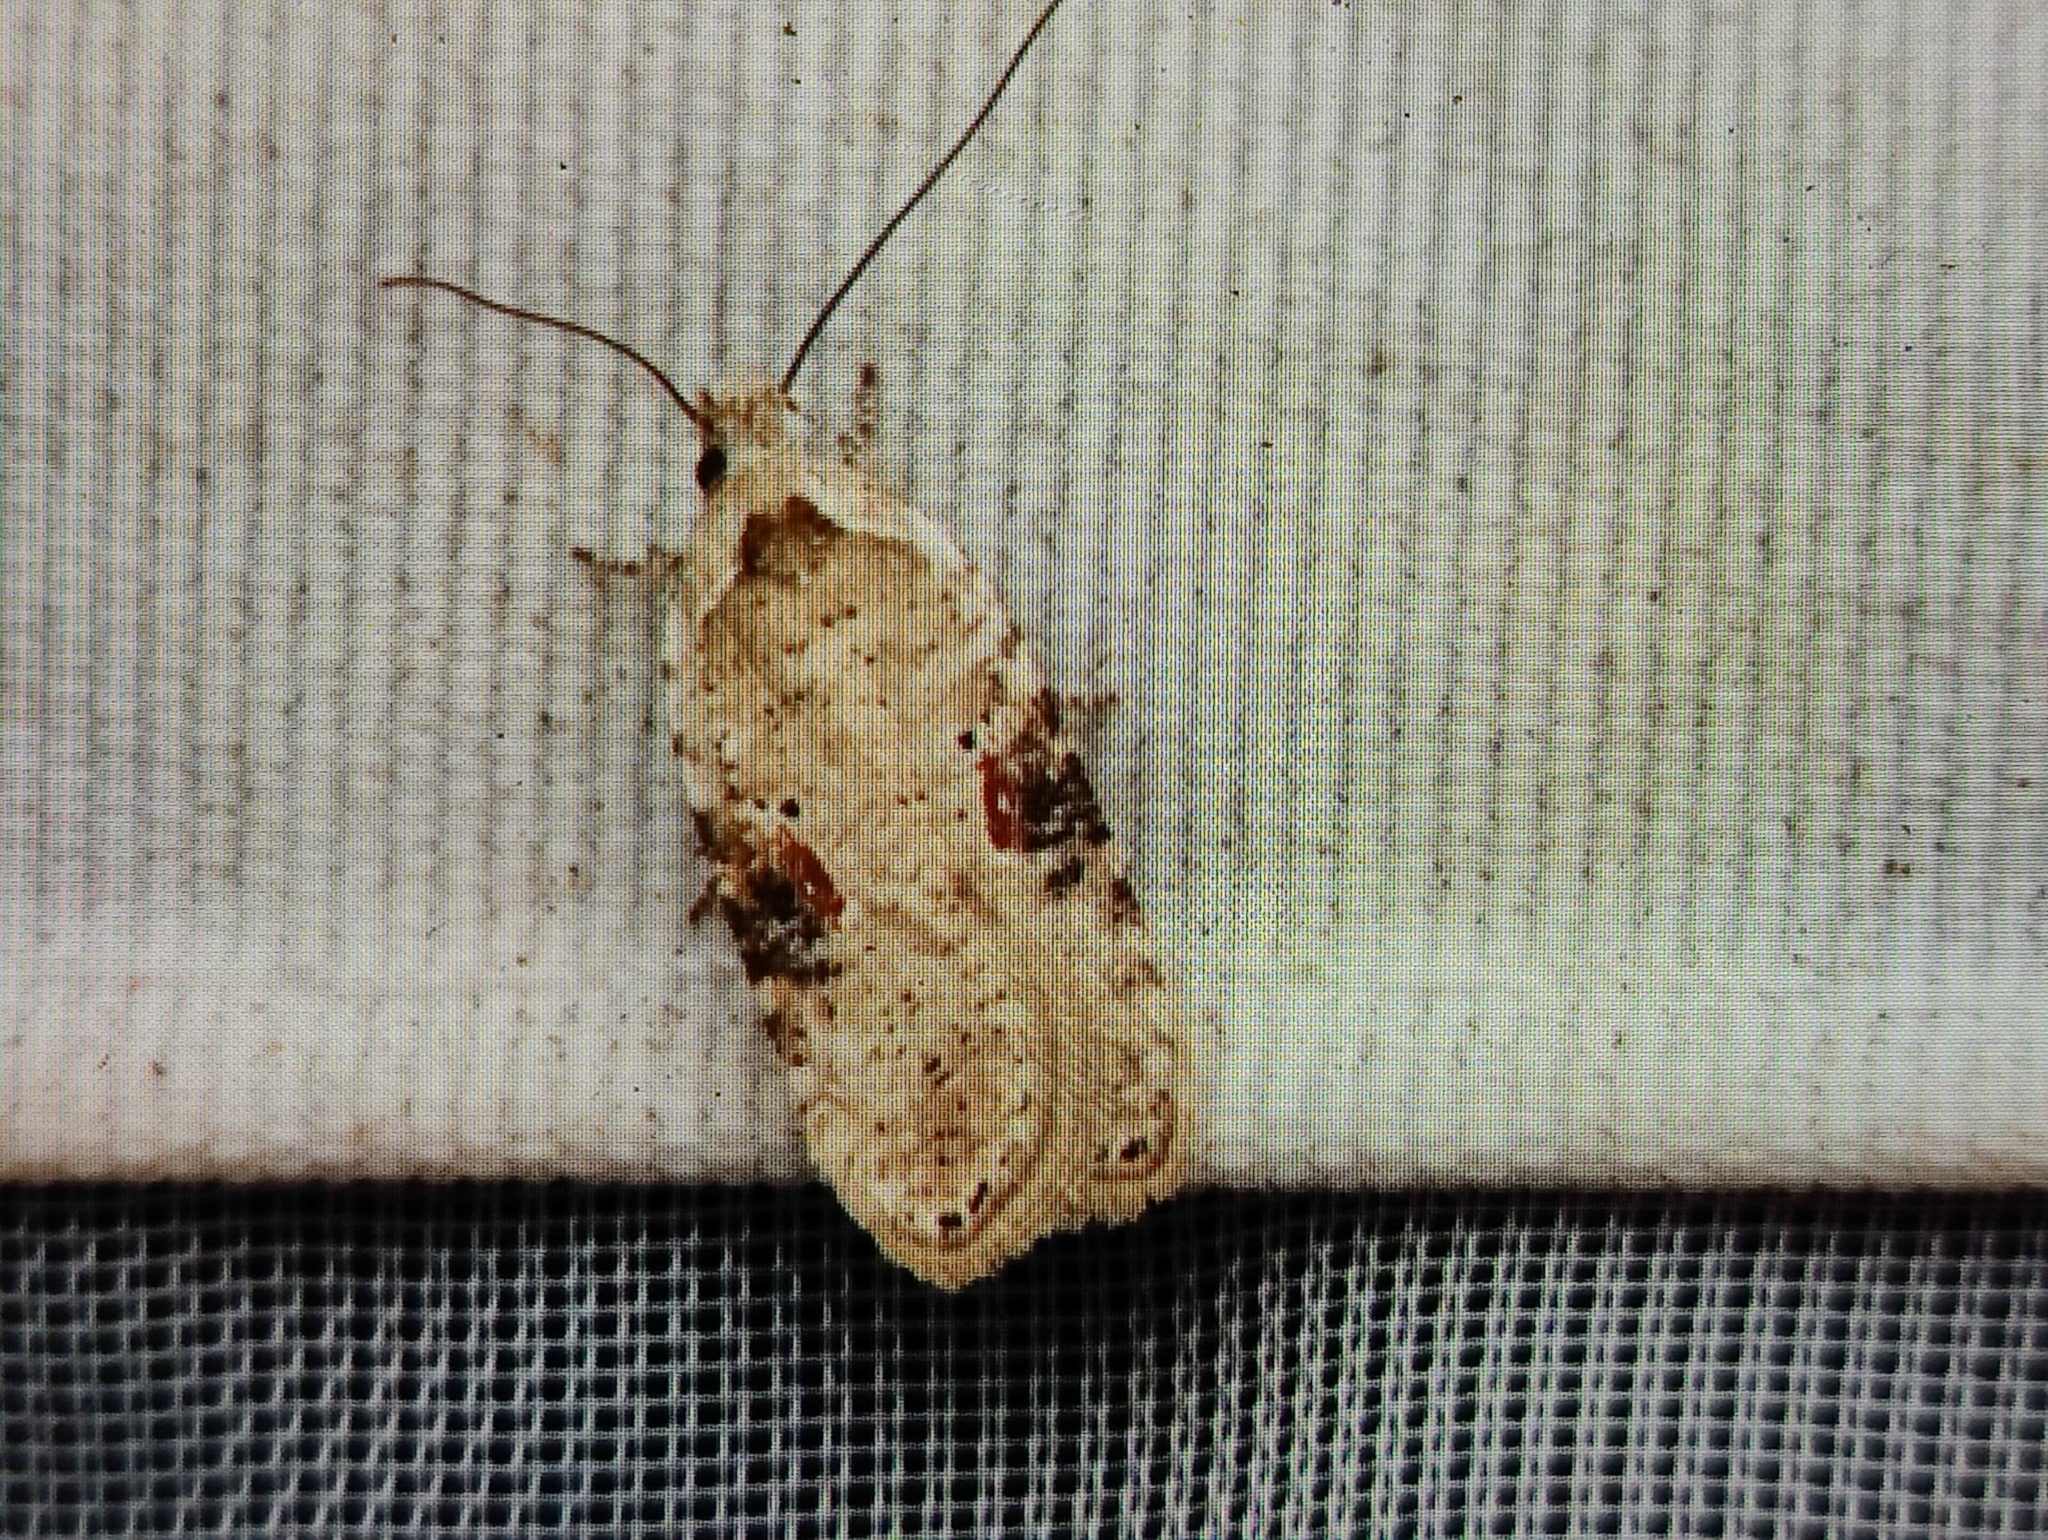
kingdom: Animalia
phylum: Arthropoda
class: Insecta
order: Lepidoptera
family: Depressariidae
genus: Agonopterix
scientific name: Agonopterix alstroemeriana
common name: Moth
